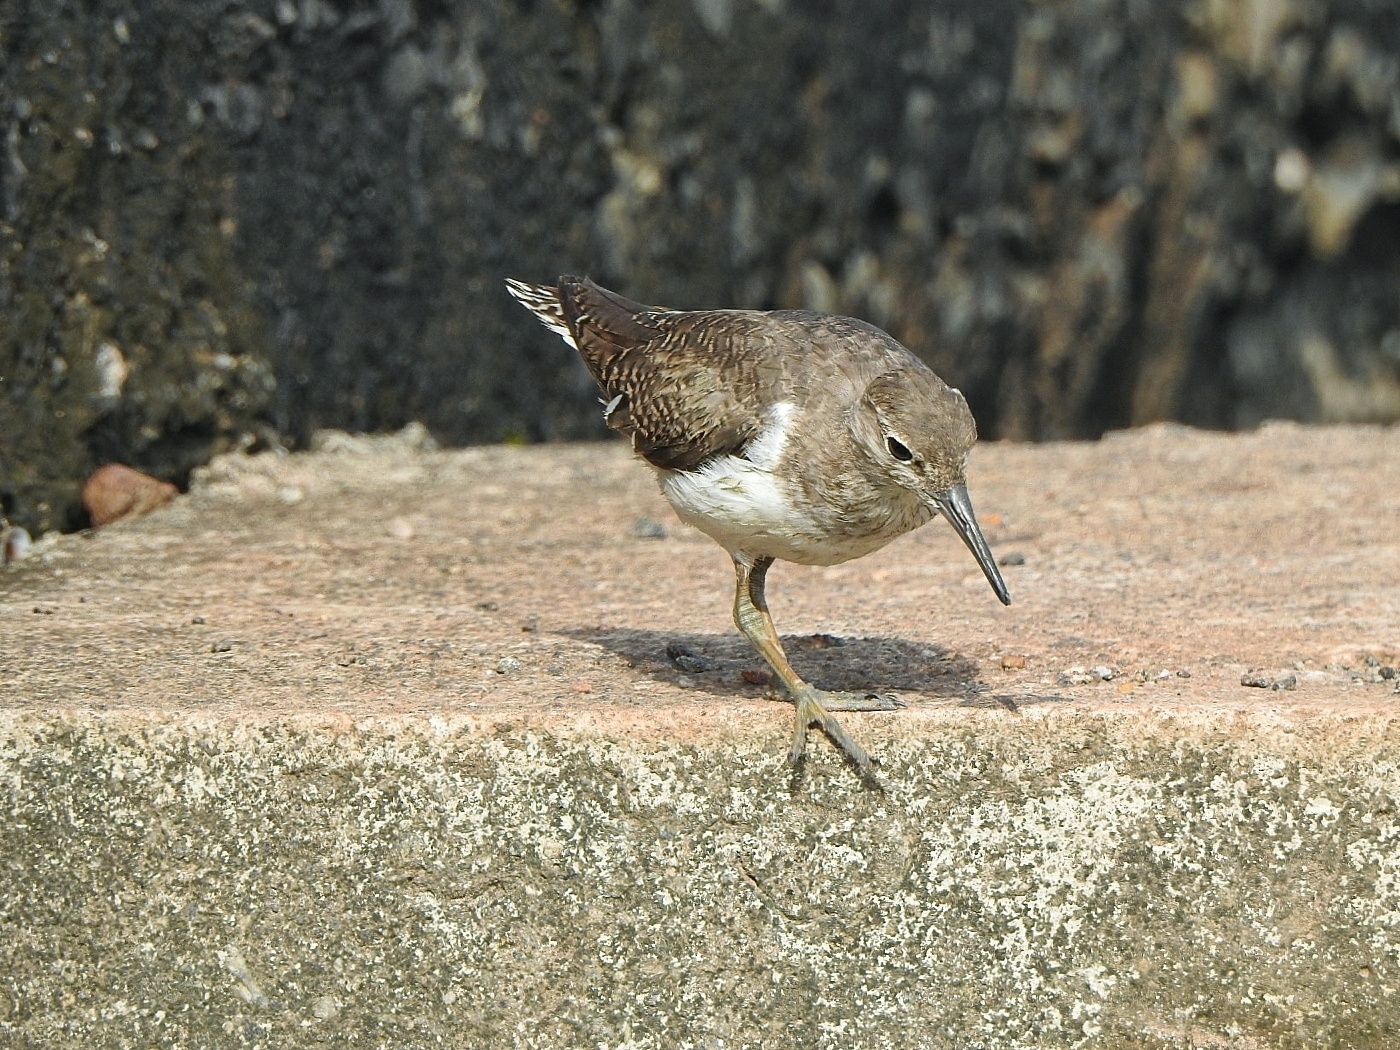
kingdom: Animalia
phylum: Chordata
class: Aves
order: Charadriiformes
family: Scolopacidae
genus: Actitis
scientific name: Actitis hypoleucos
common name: Common sandpiper
